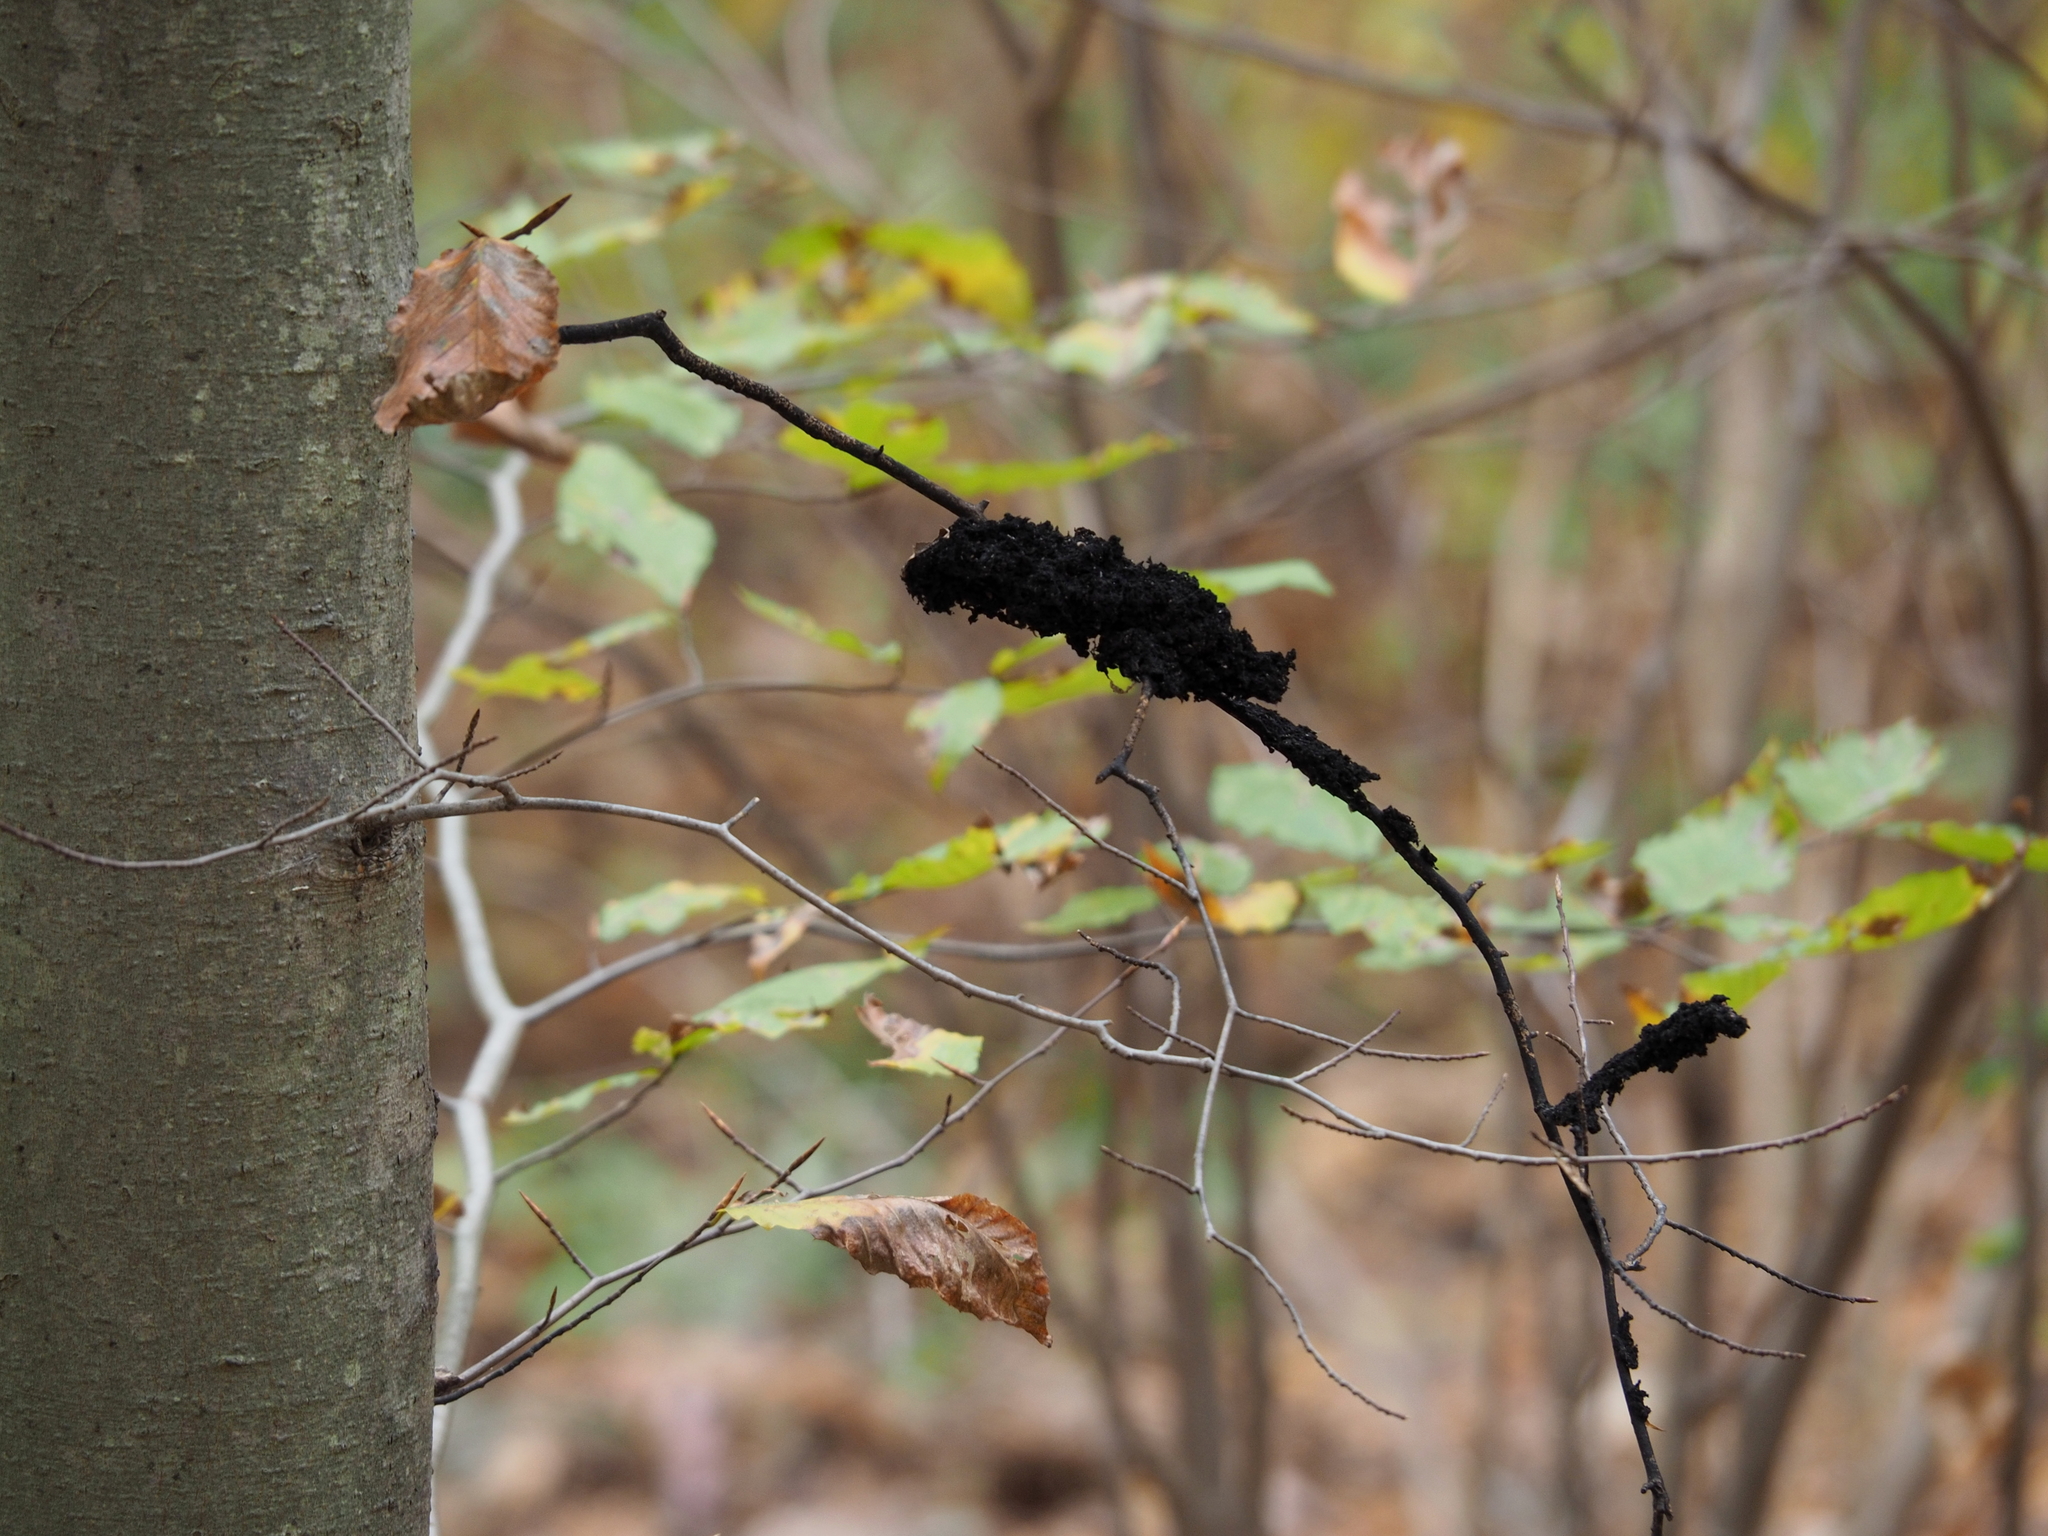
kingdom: Fungi
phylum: Ascomycota
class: Dothideomycetes
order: Capnodiales
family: Capnodiaceae
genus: Scorias
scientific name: Scorias spongiosa
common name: Black sooty mold
